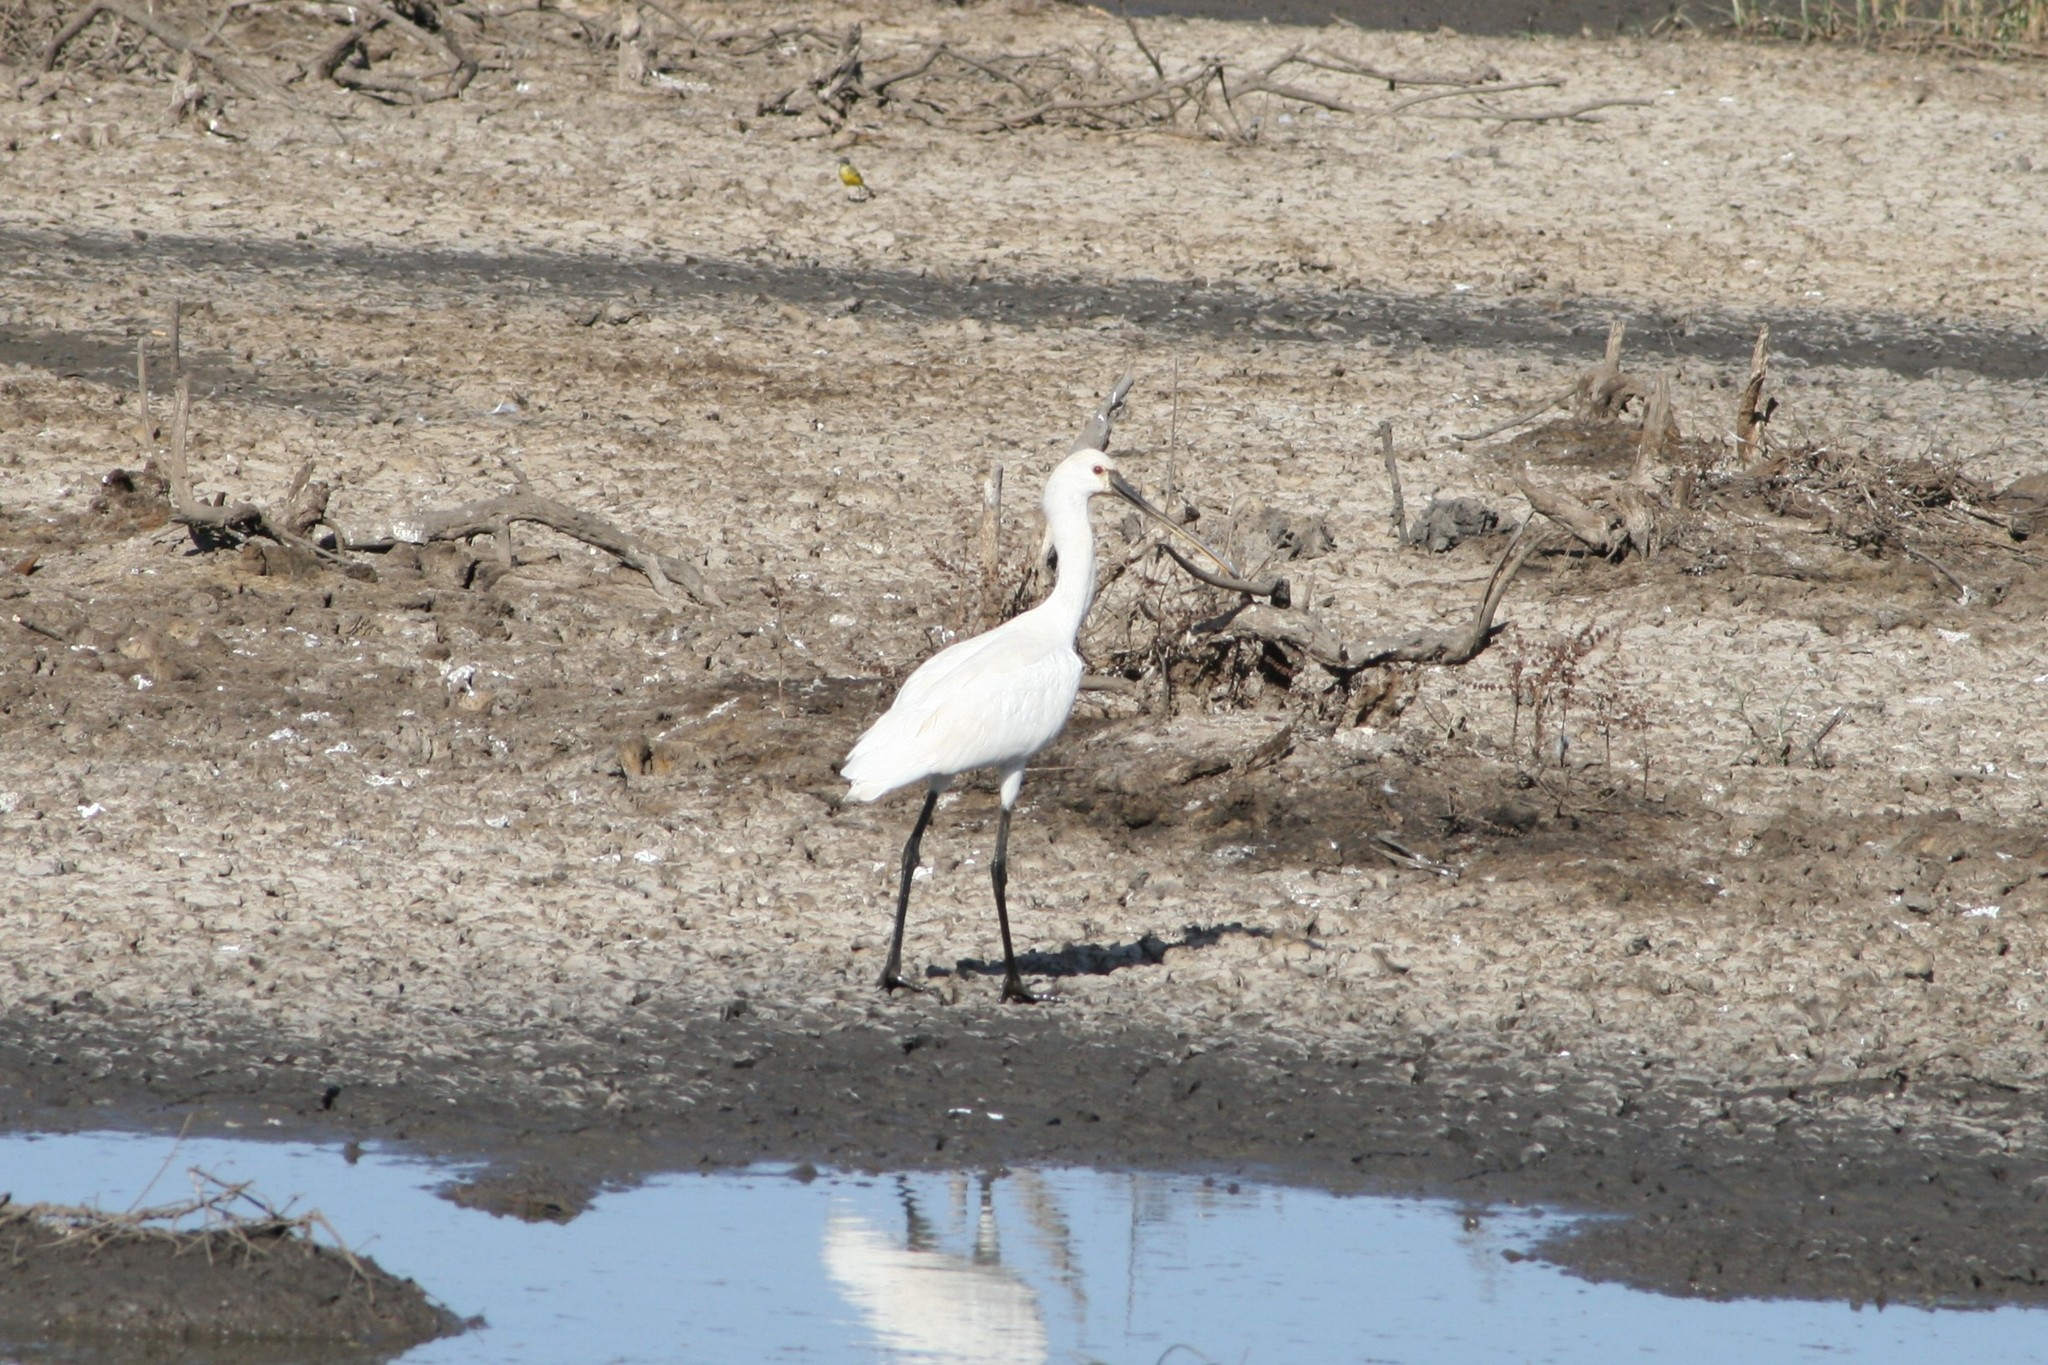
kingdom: Animalia
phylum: Chordata
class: Aves
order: Pelecaniformes
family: Threskiornithidae
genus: Platalea
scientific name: Platalea leucorodia
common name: Eurasian spoonbill
